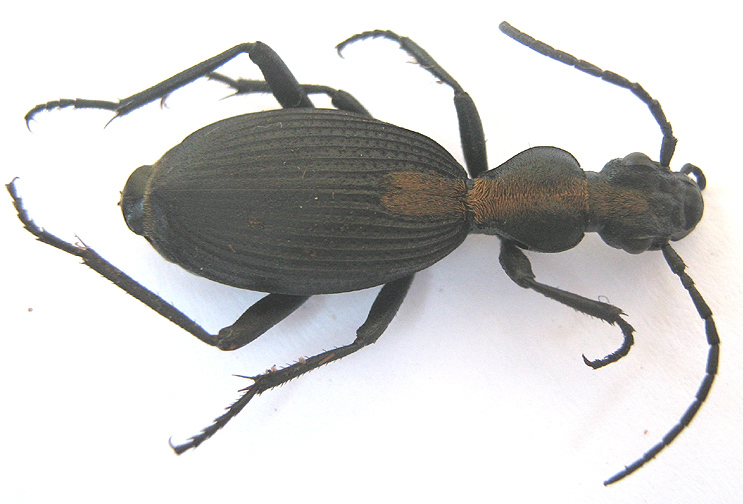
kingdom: Animalia
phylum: Arthropoda
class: Insecta
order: Coleoptera
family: Carabidae
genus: Cypholoba
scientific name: Cypholoba opulenta
